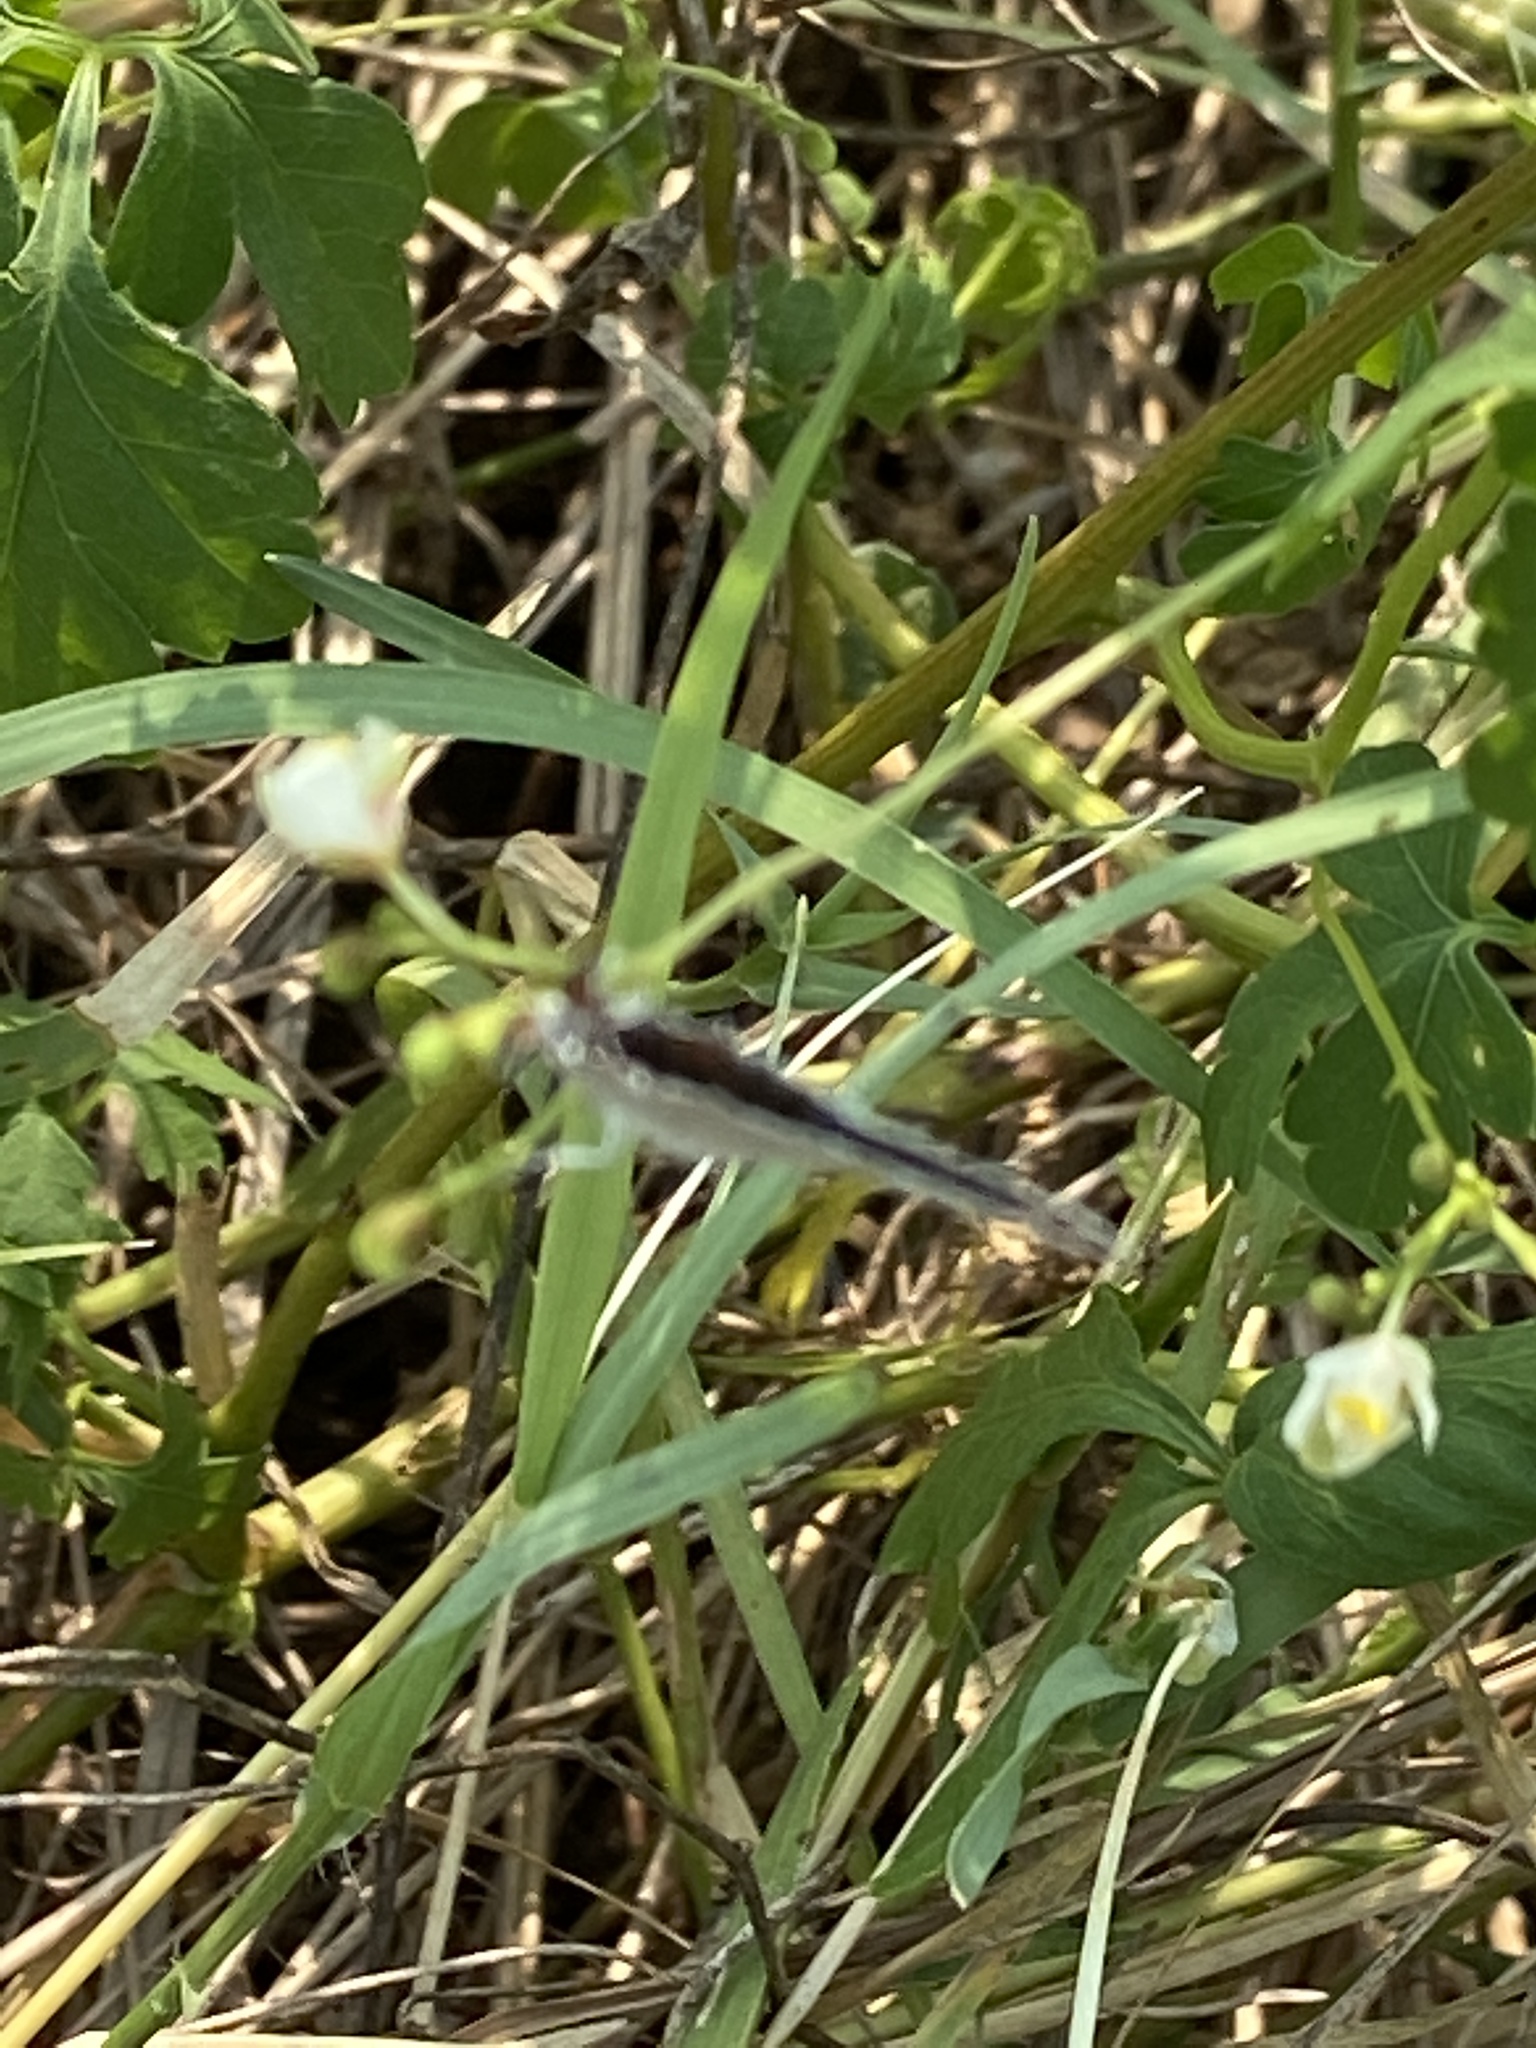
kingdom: Animalia
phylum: Arthropoda
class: Insecta
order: Lepidoptera
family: Lycaenidae
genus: Strymon
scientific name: Strymon melinus
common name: Gray hairstreak
